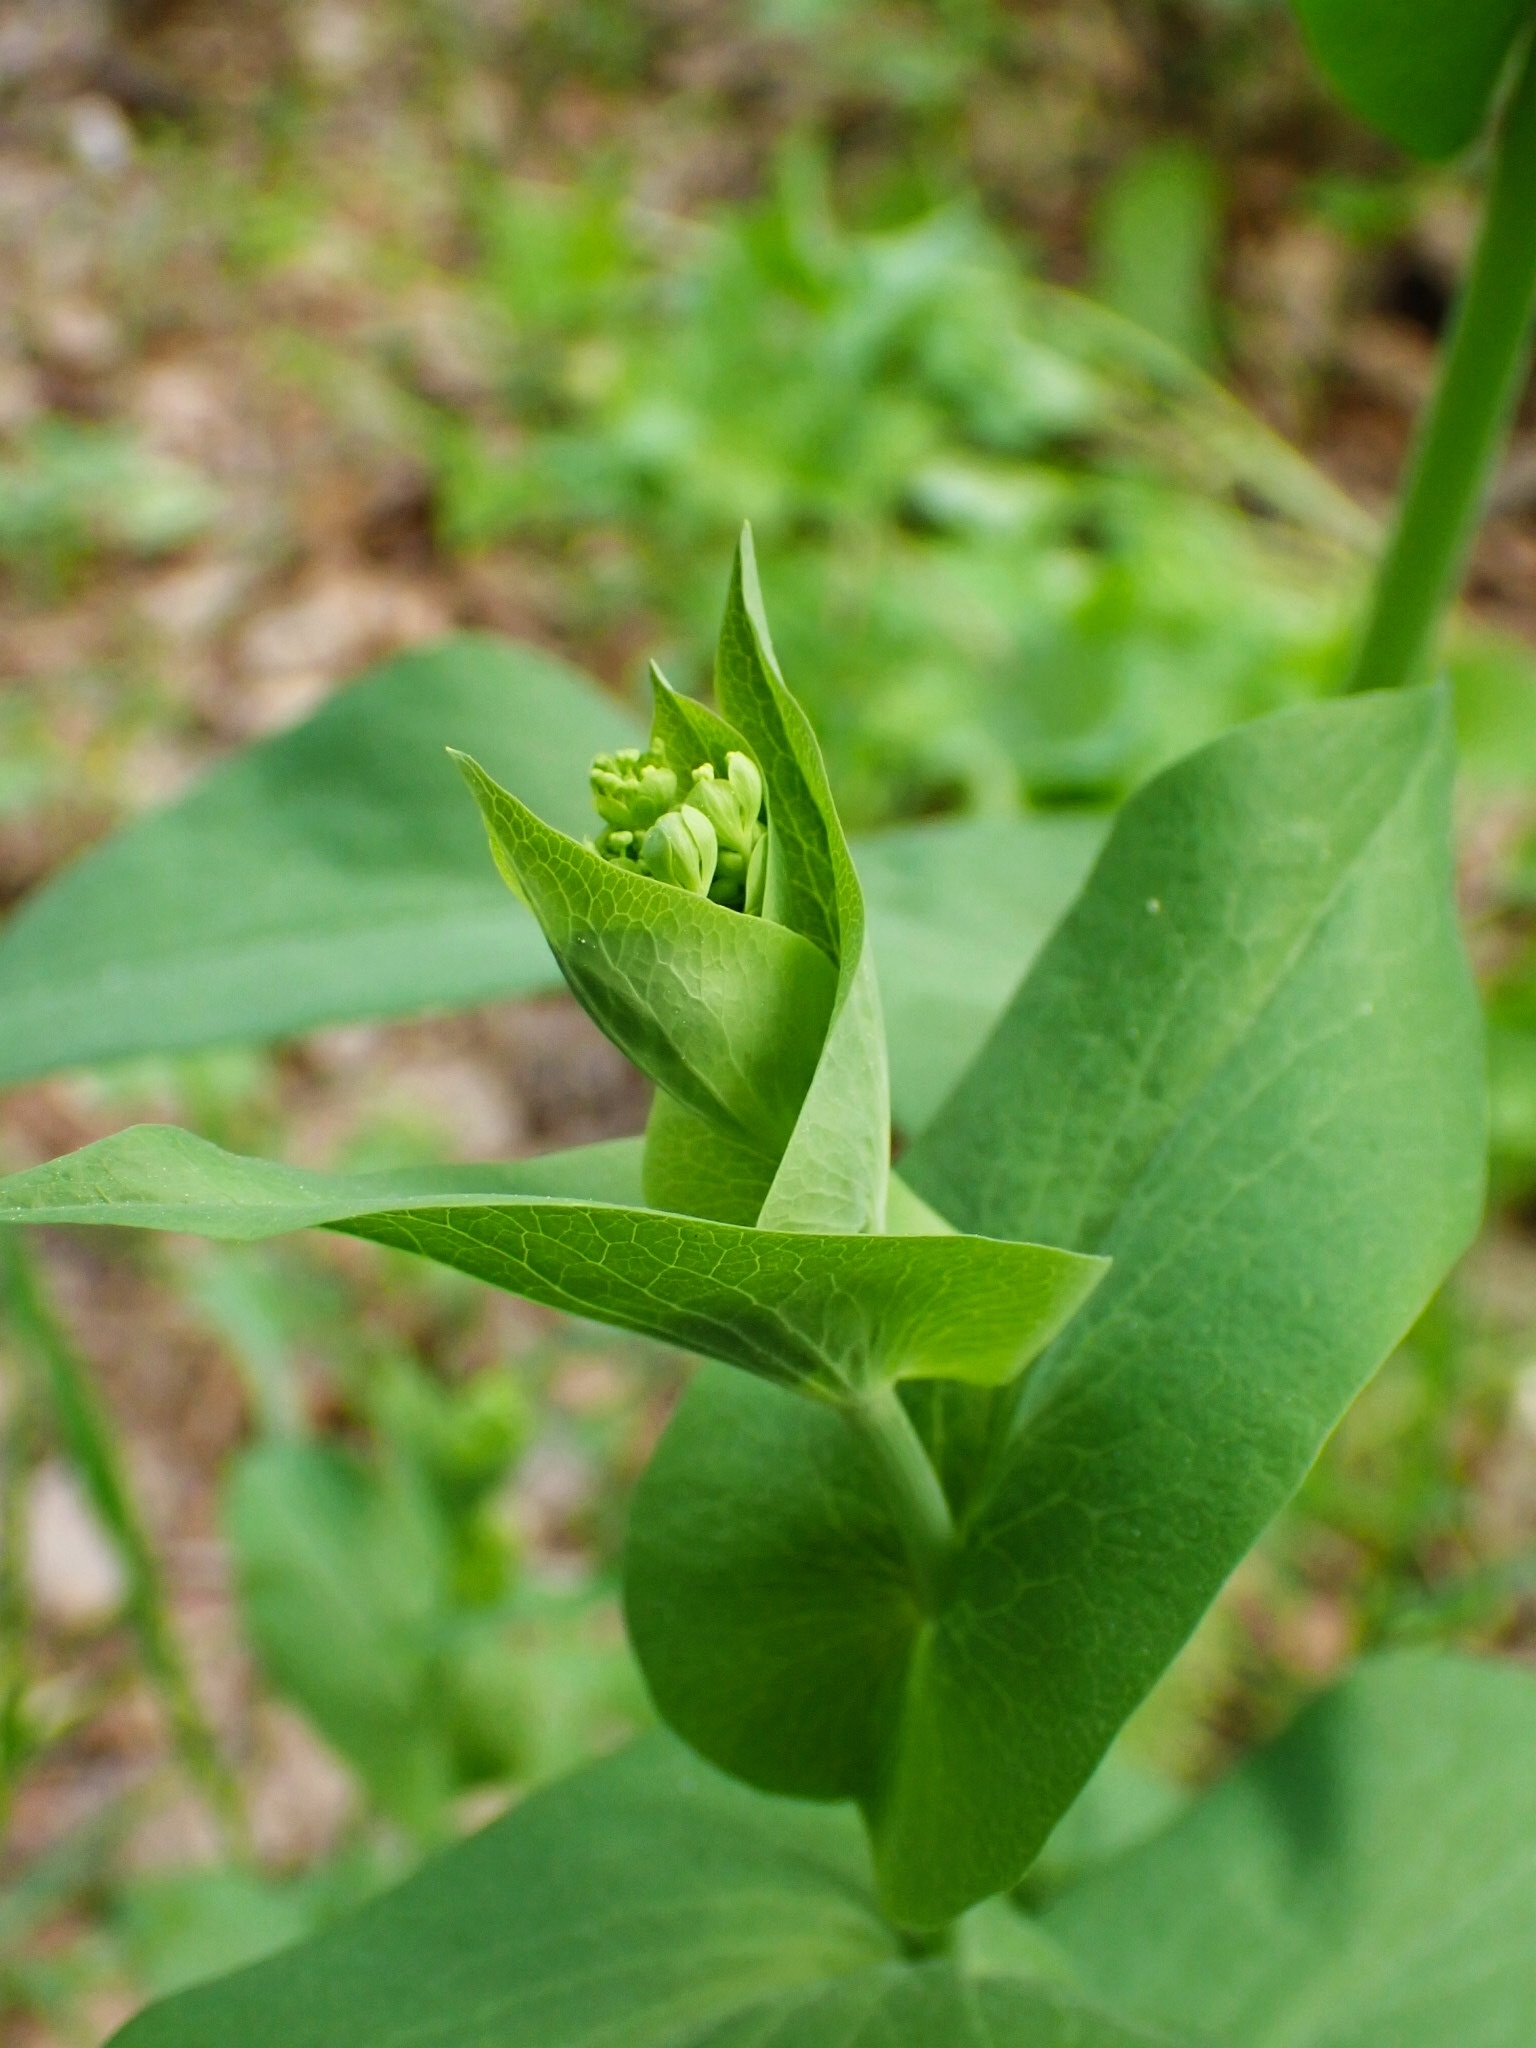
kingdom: Plantae
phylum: Tracheophyta
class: Magnoliopsida
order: Apiales
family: Apiaceae
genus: Bupleurum
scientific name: Bupleurum aureum
